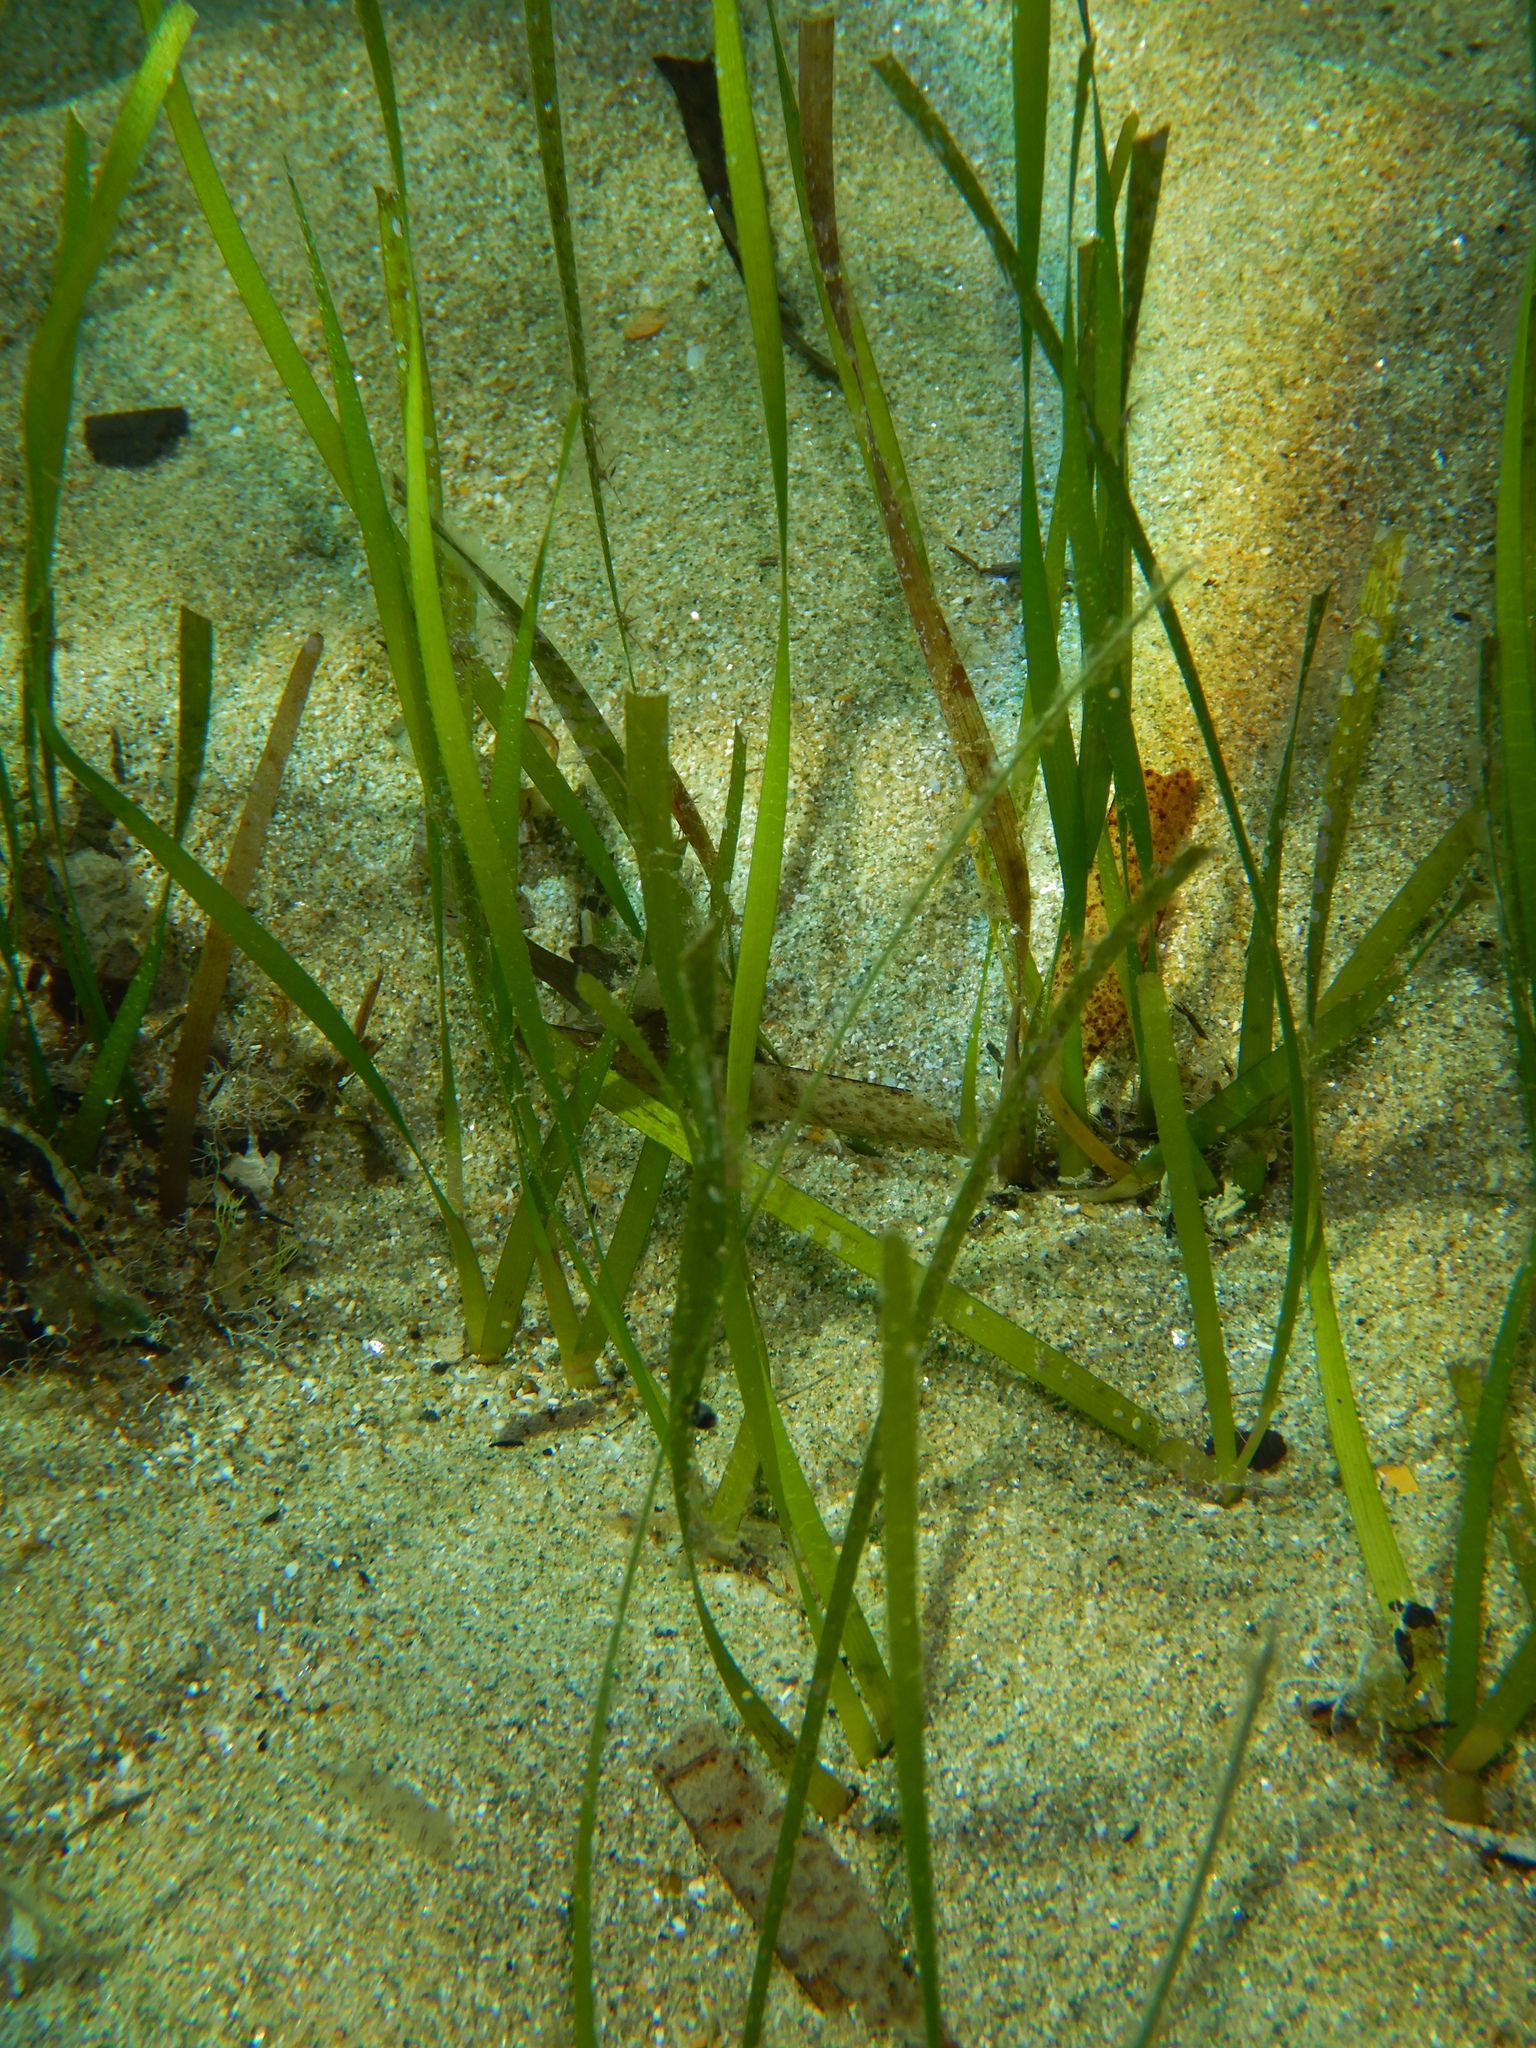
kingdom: Plantae
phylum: Tracheophyta
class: Liliopsida
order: Alismatales
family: Cymodoceaceae
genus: Cymodocea
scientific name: Cymodocea nodosa
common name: Slender seagrass
